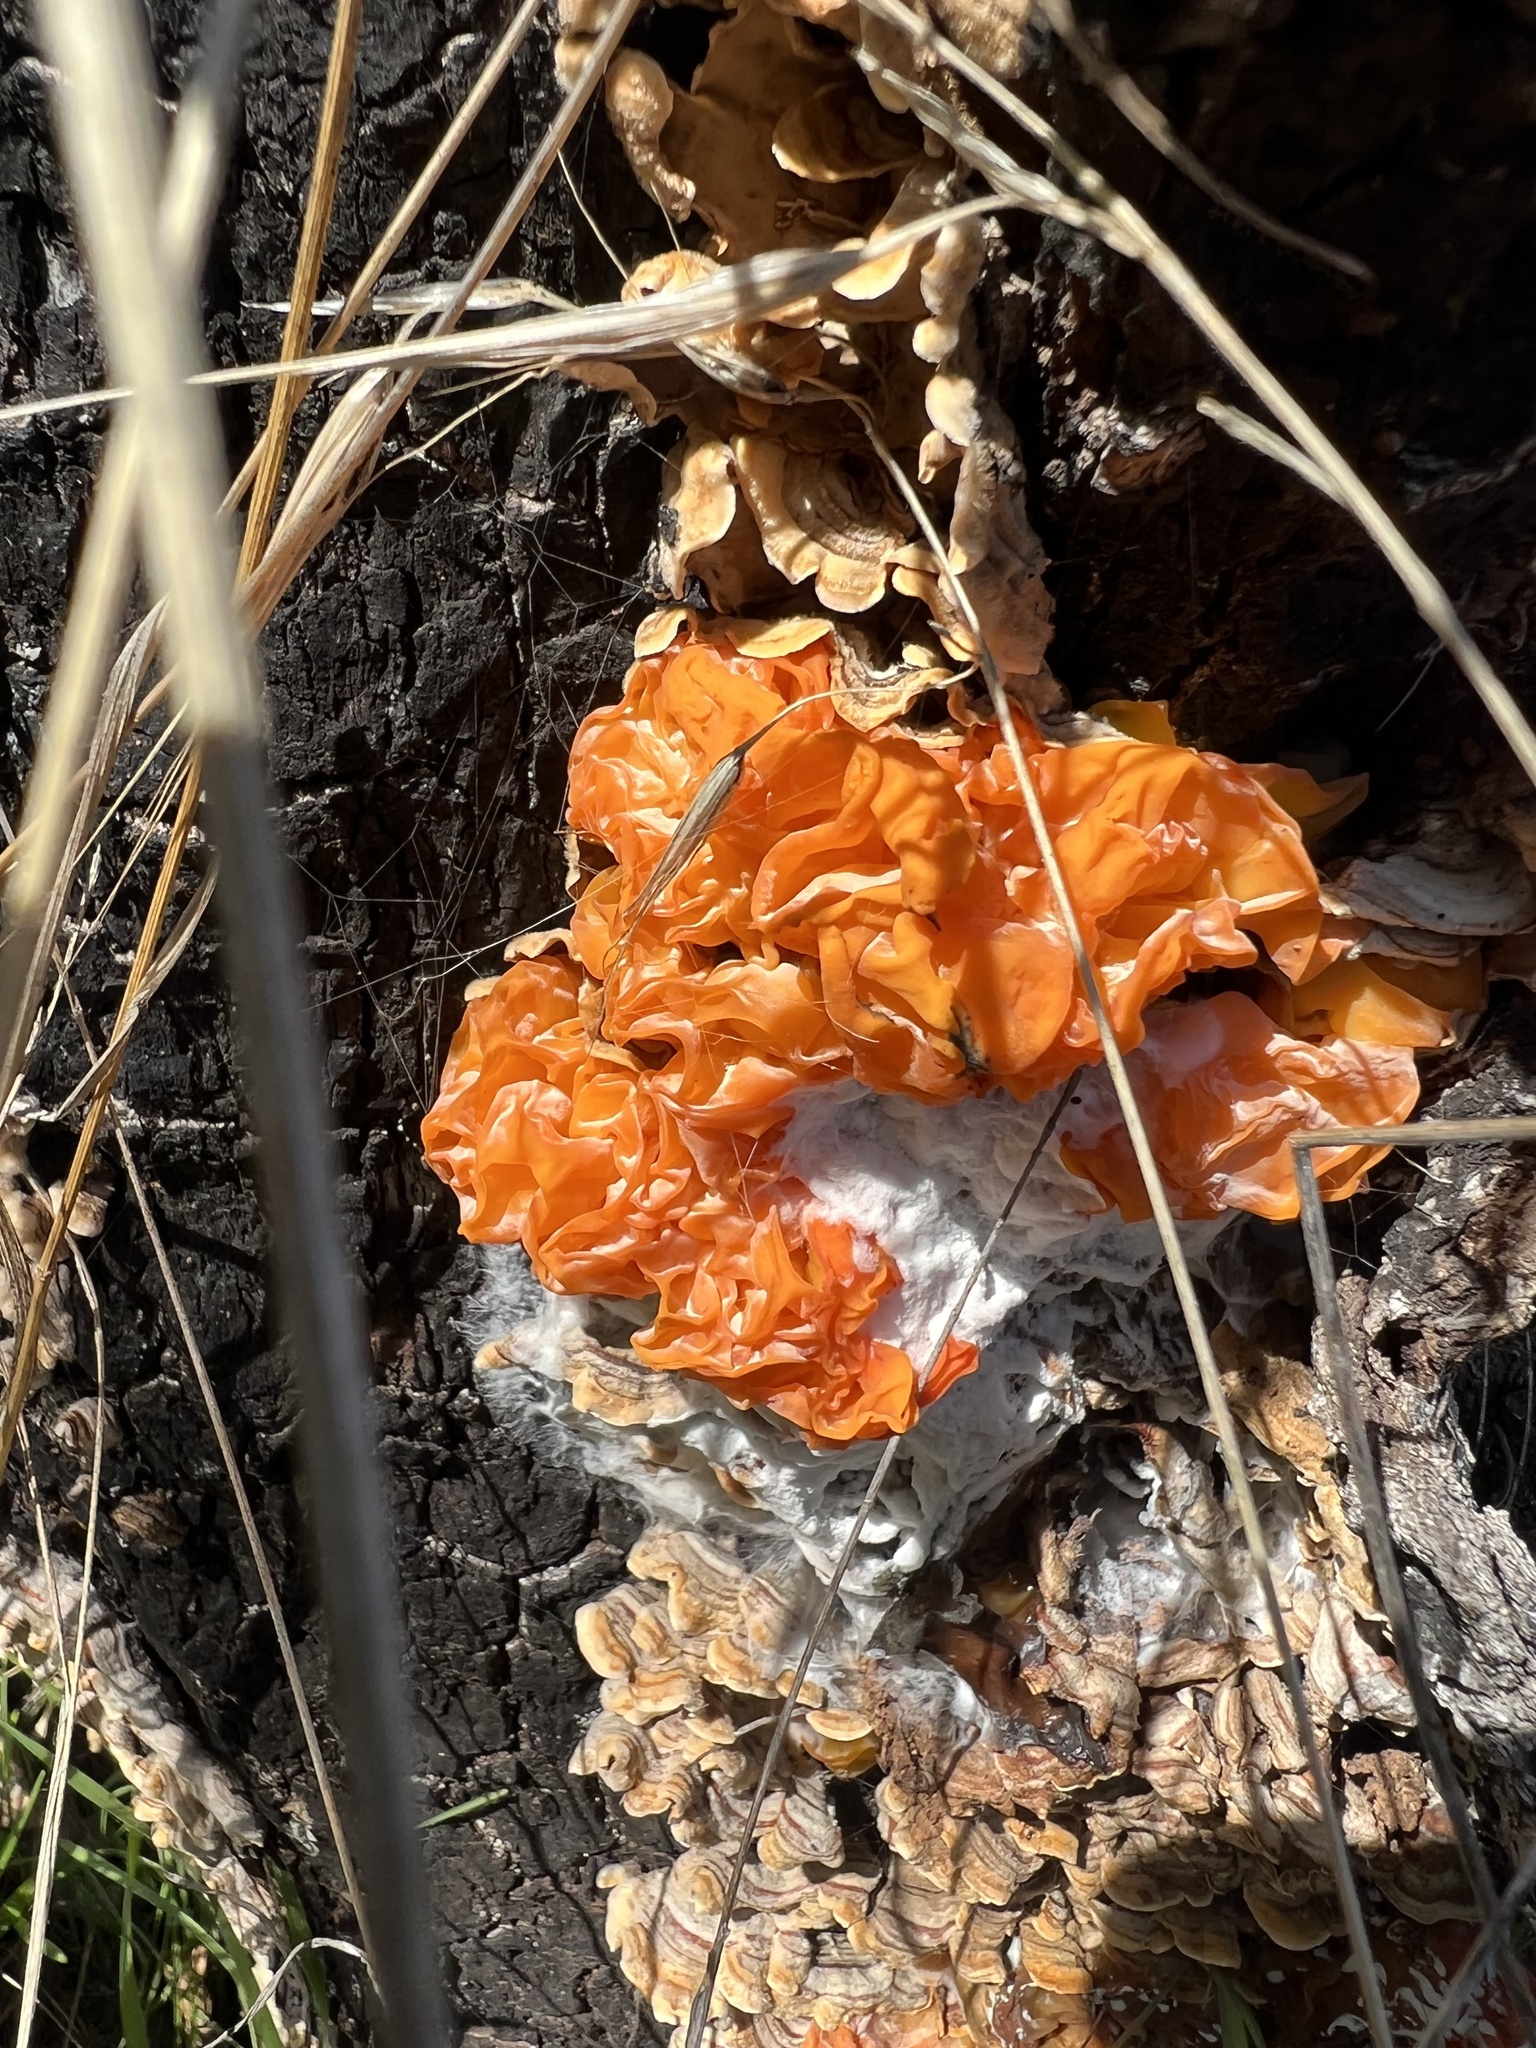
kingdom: Fungi
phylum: Basidiomycota
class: Tremellomycetes
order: Tremellales
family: Naemateliaceae
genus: Naematelia
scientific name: Naematelia aurantia
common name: Golden ear
